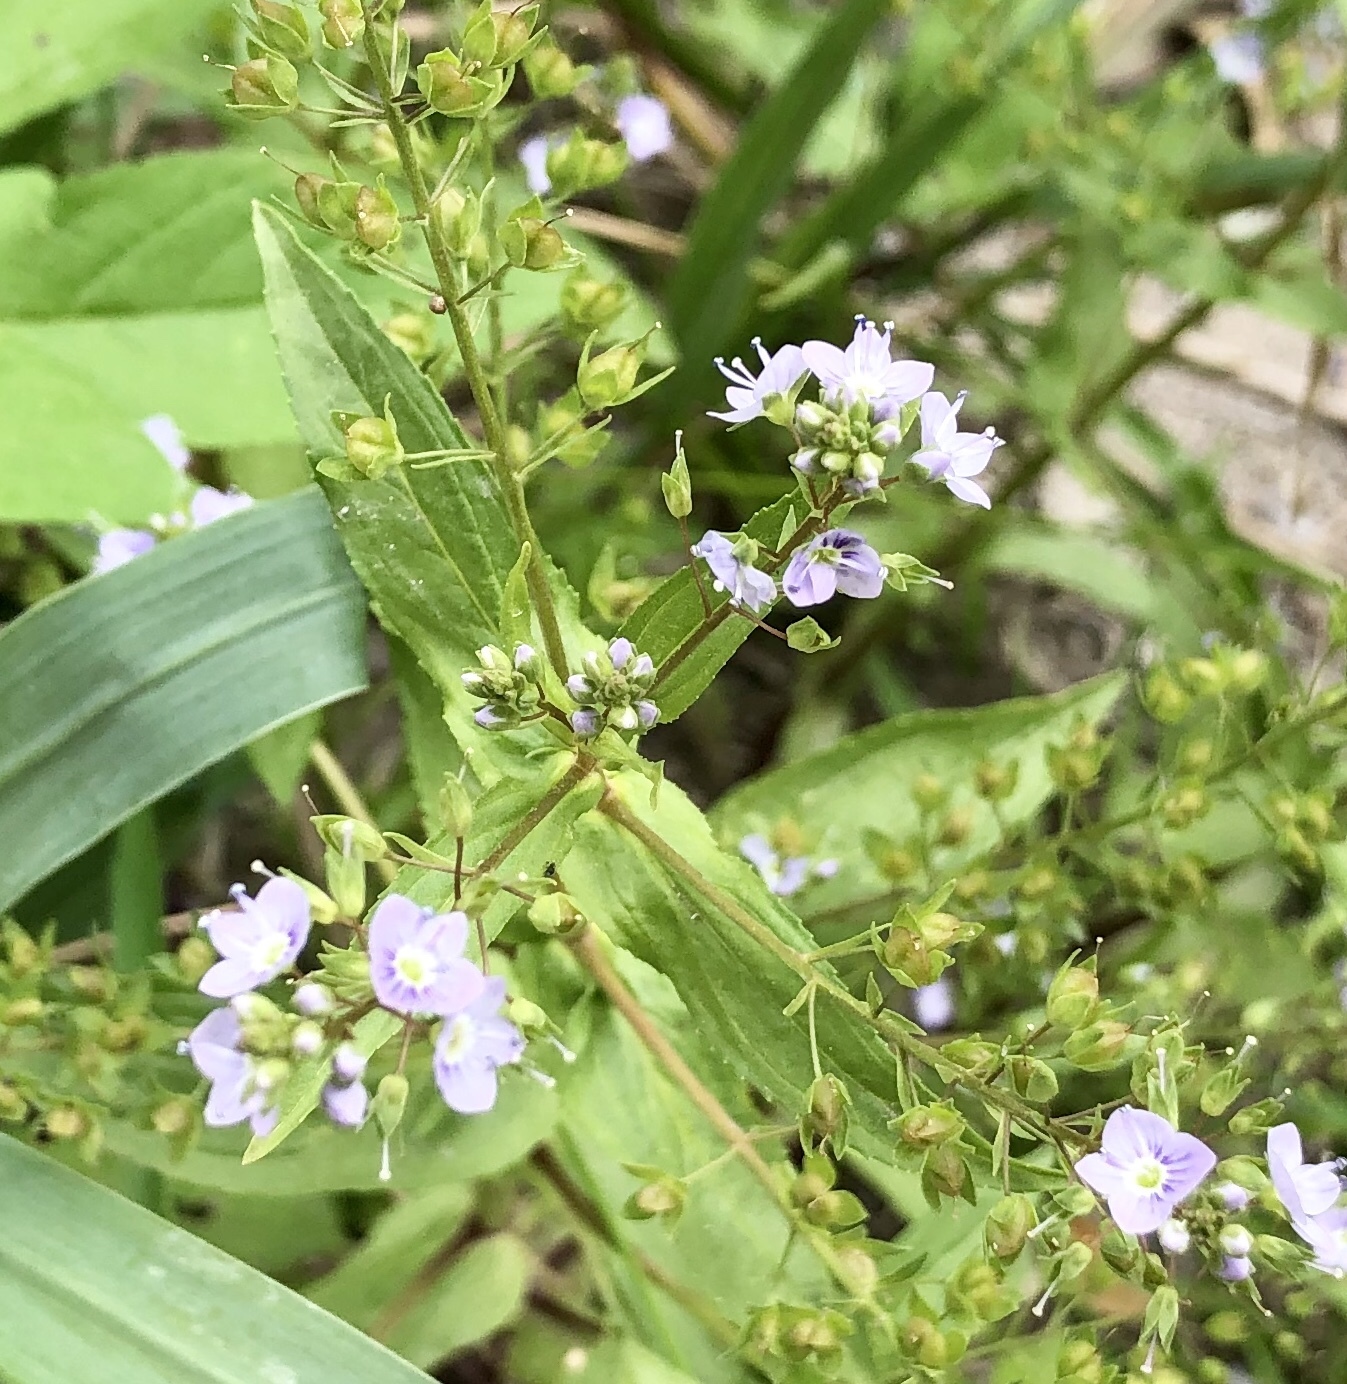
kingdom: Plantae
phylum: Tracheophyta
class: Magnoliopsida
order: Lamiales
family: Plantaginaceae
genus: Veronica
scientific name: Veronica anagallis-aquatica
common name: Water speedwell
